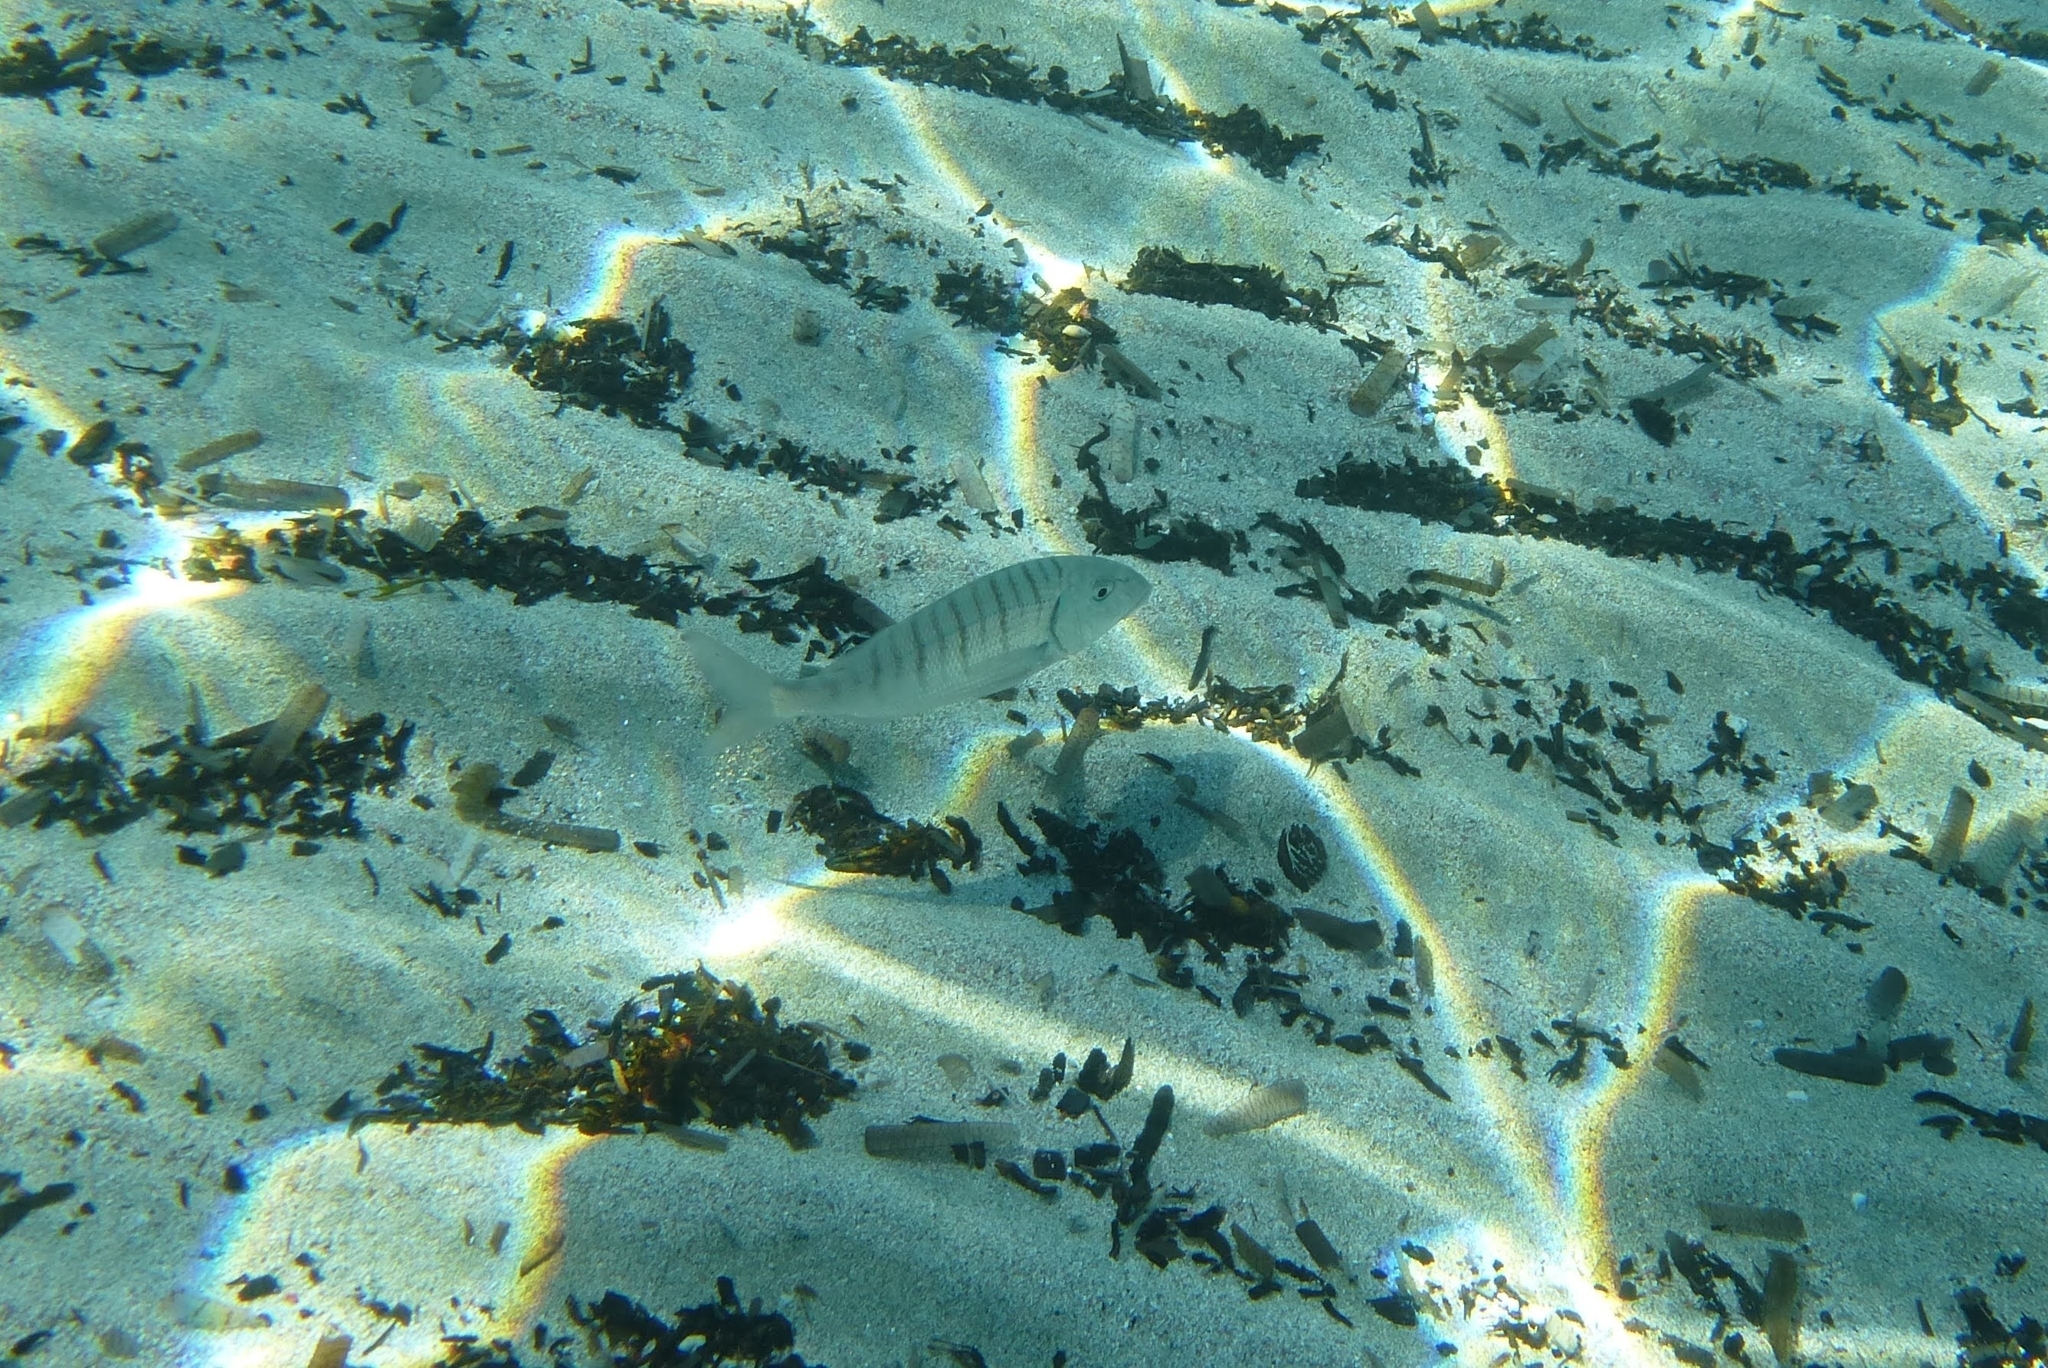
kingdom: Animalia
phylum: Chordata
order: Perciformes
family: Sparidae
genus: Lithognathus
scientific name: Lithognathus mormyrus
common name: Sand steenbras
